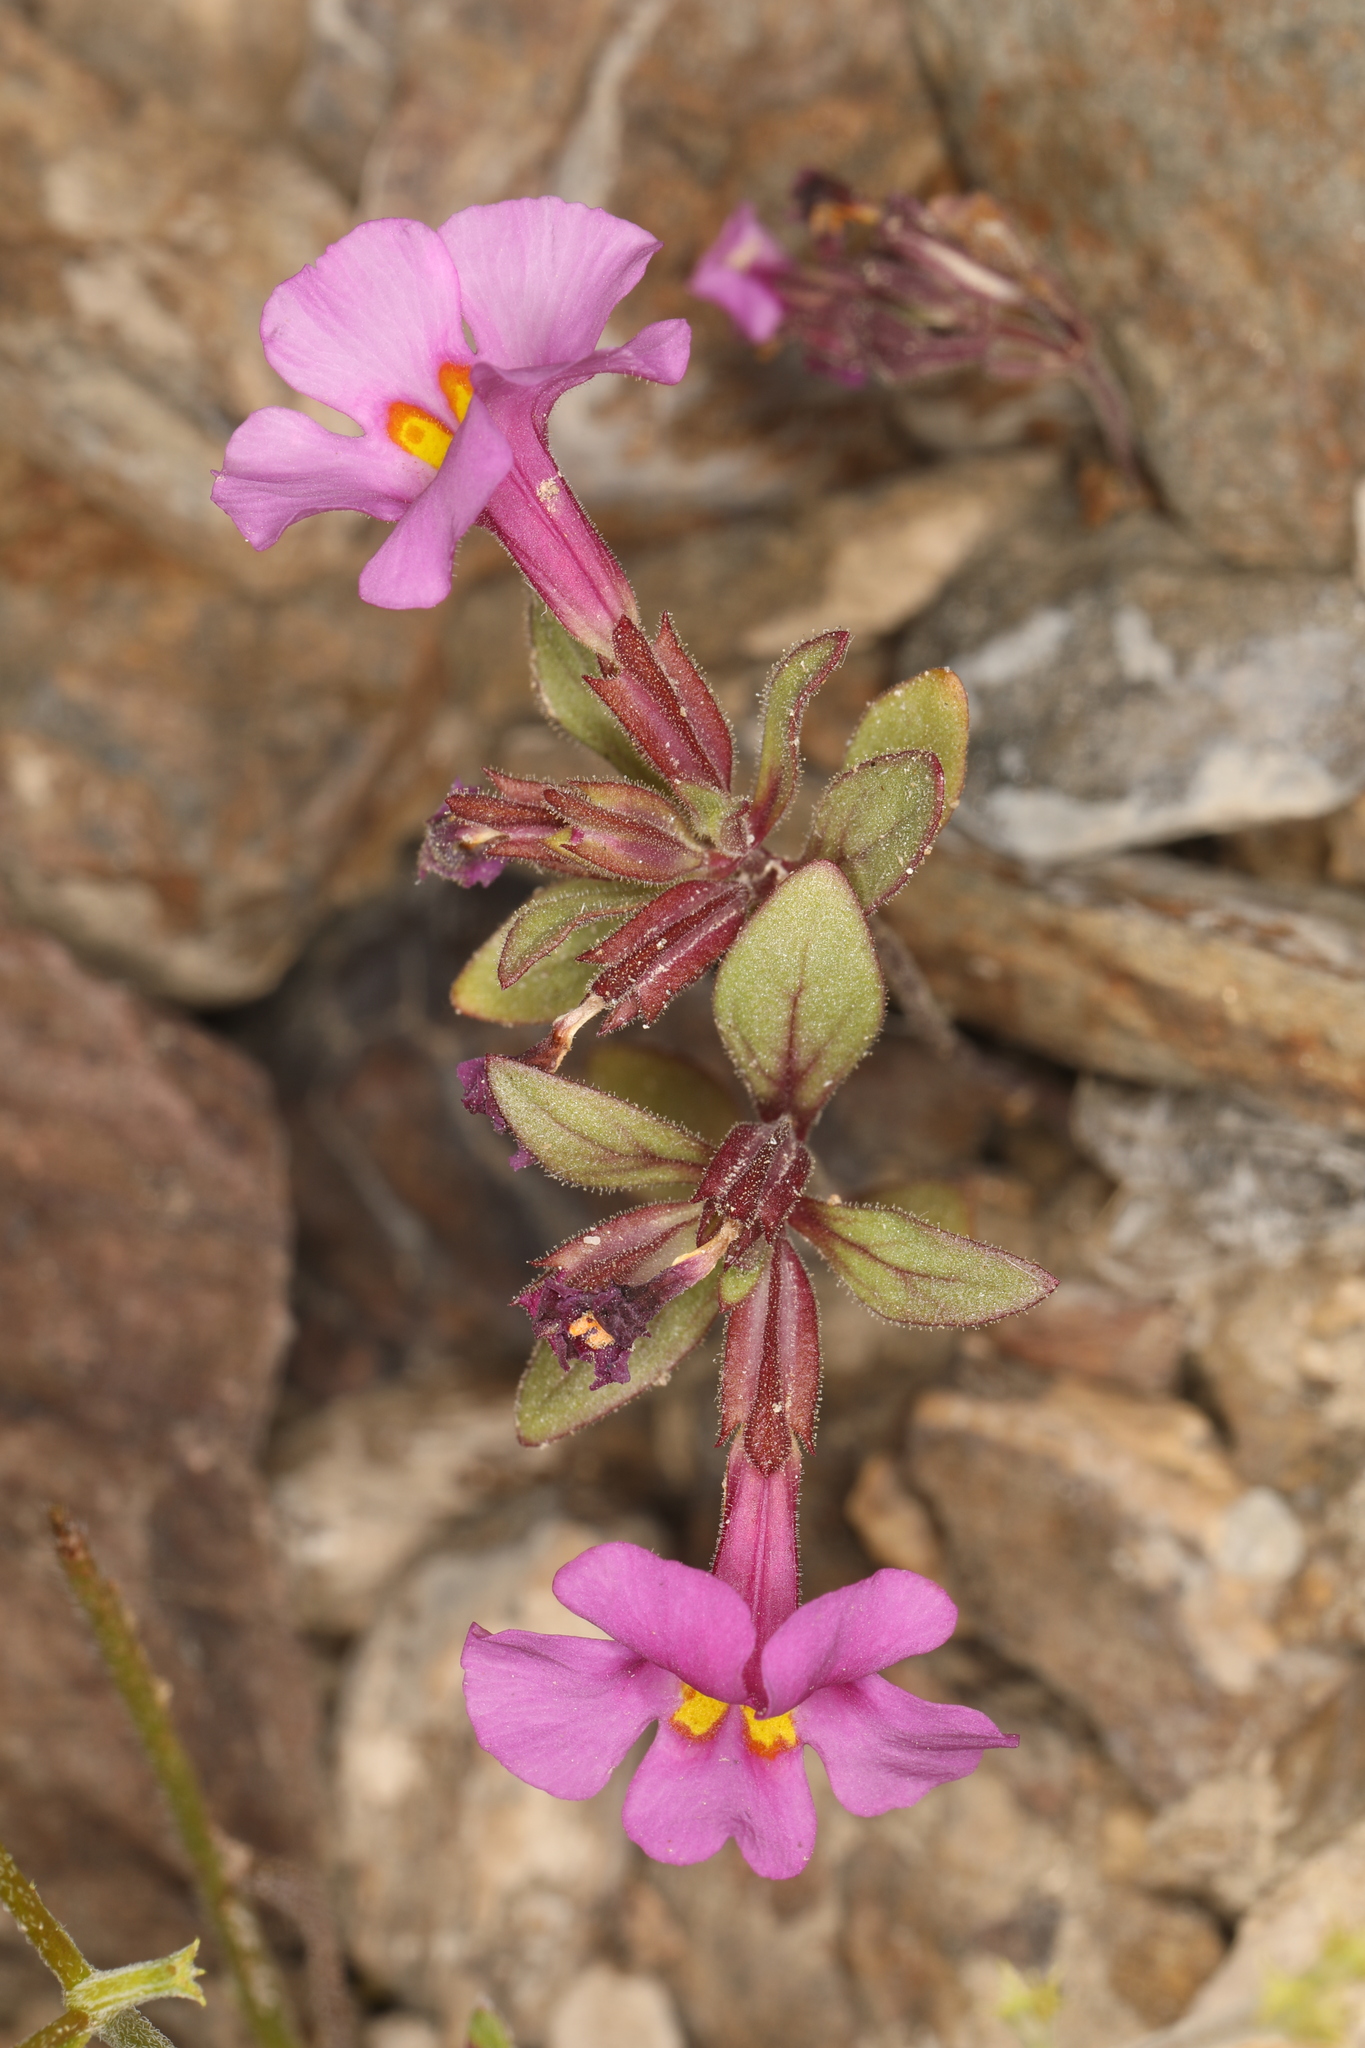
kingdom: Plantae
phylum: Tracheophyta
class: Magnoliopsida
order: Lamiales
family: Phrymaceae
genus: Diplacus
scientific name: Diplacus parryi
